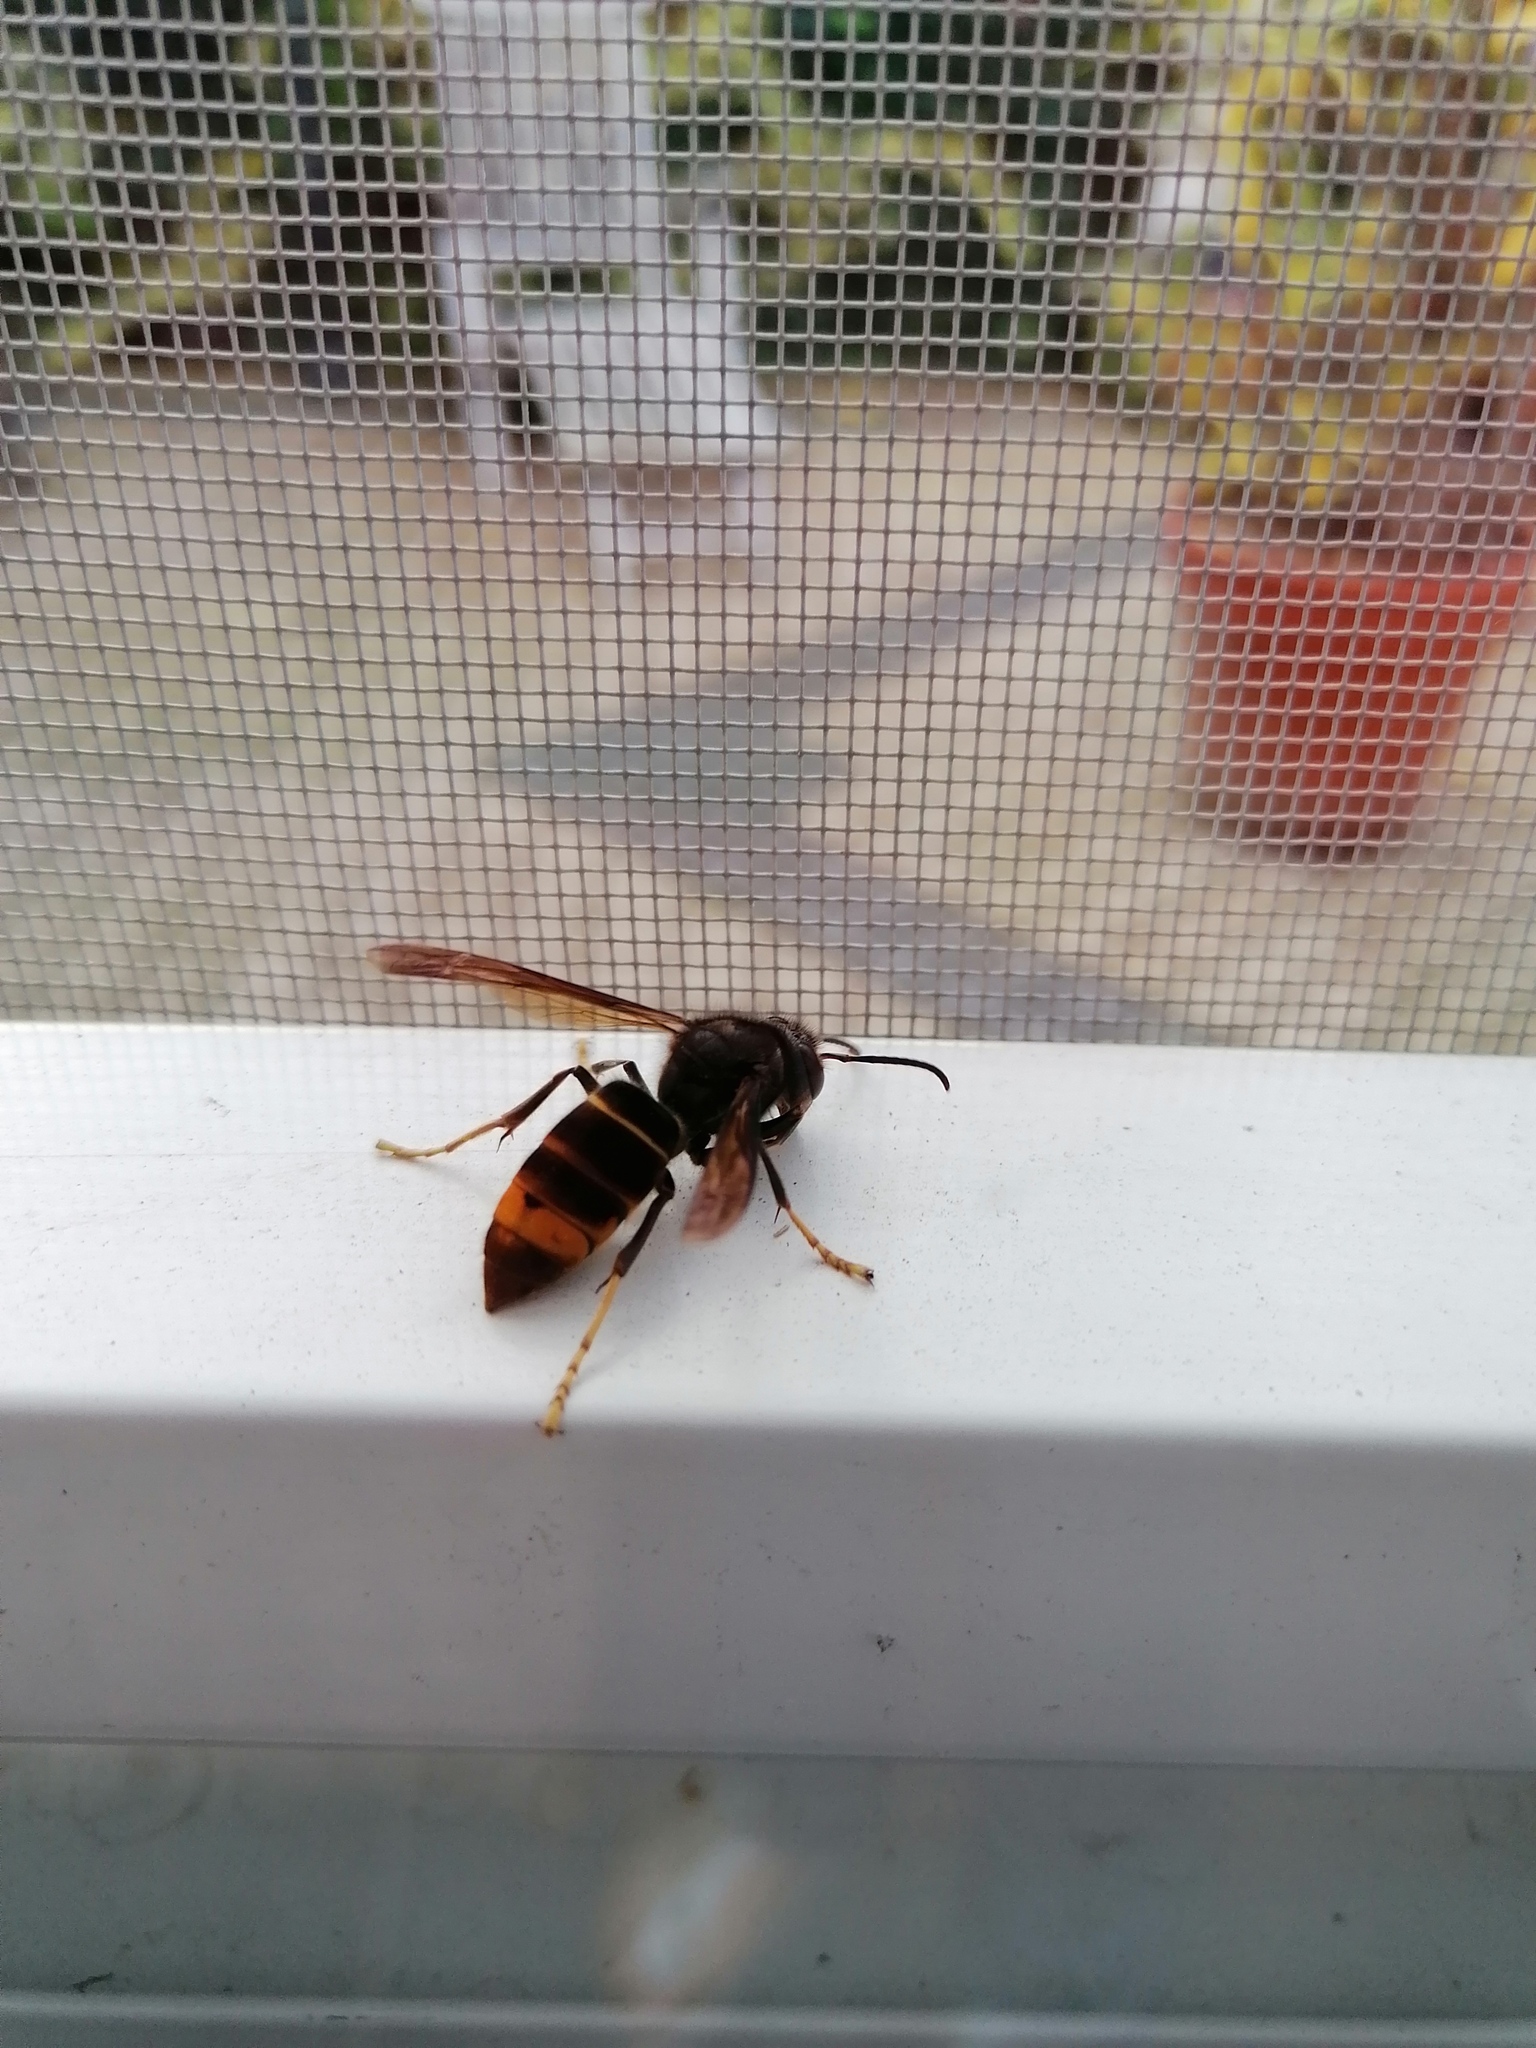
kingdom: Animalia
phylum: Arthropoda
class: Insecta
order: Hymenoptera
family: Vespidae
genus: Vespa
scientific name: Vespa velutina
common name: Asian hornet
